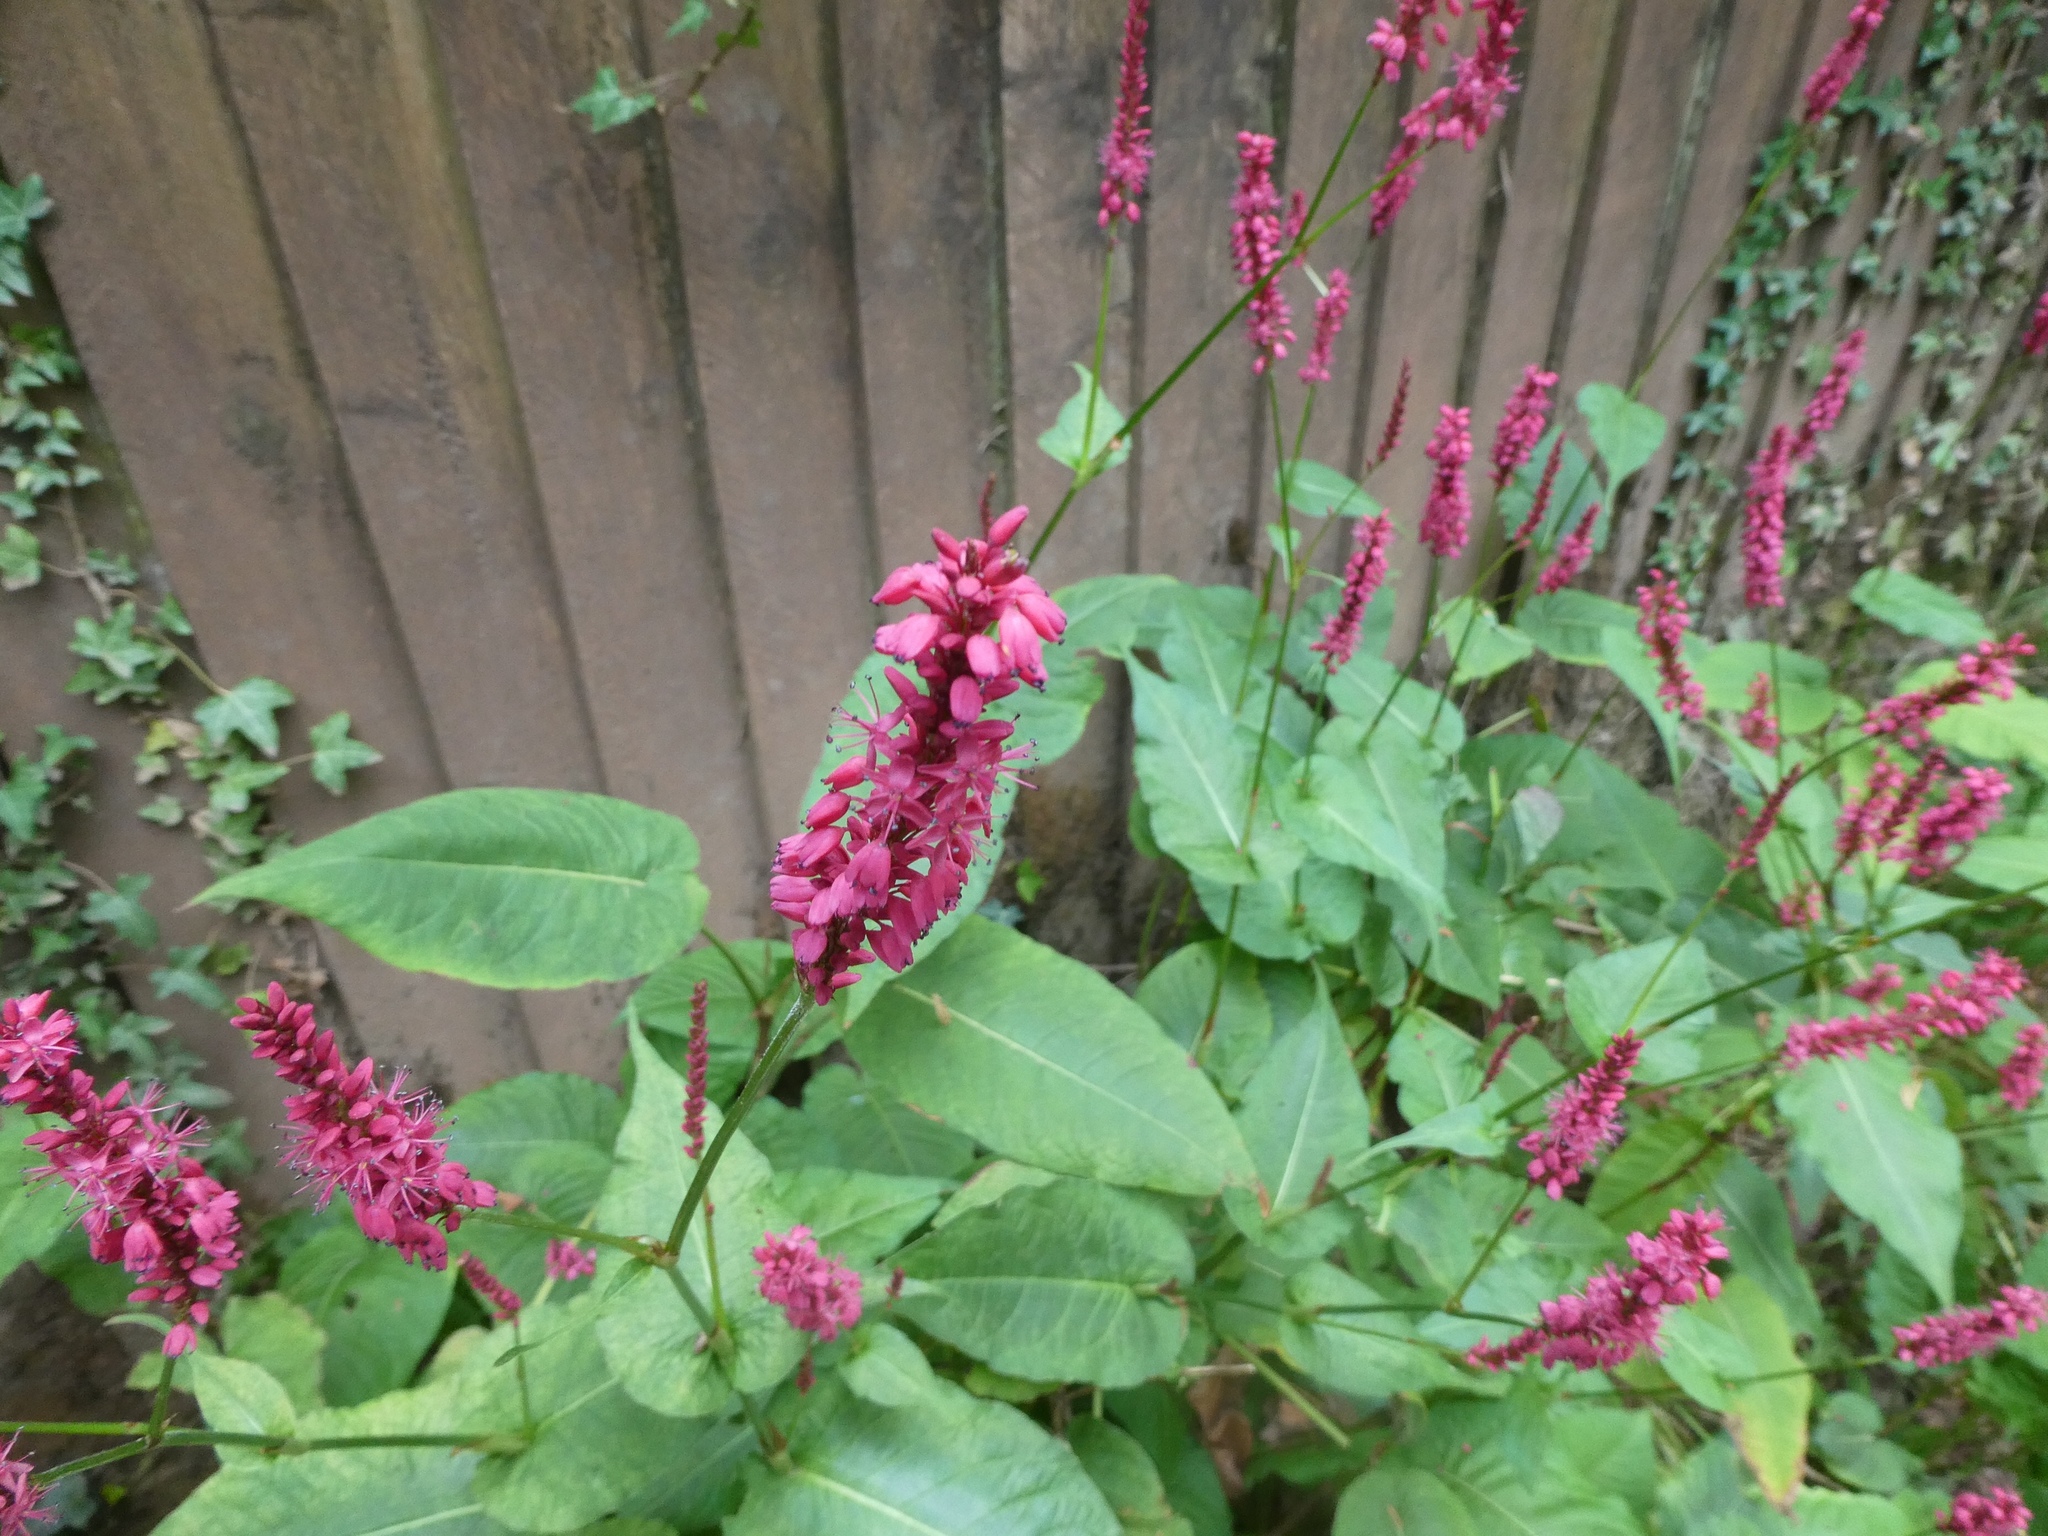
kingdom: Plantae
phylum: Tracheophyta
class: Magnoliopsida
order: Caryophyllales
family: Polygonaceae
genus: Bistorta
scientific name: Bistorta amplexicaulis
